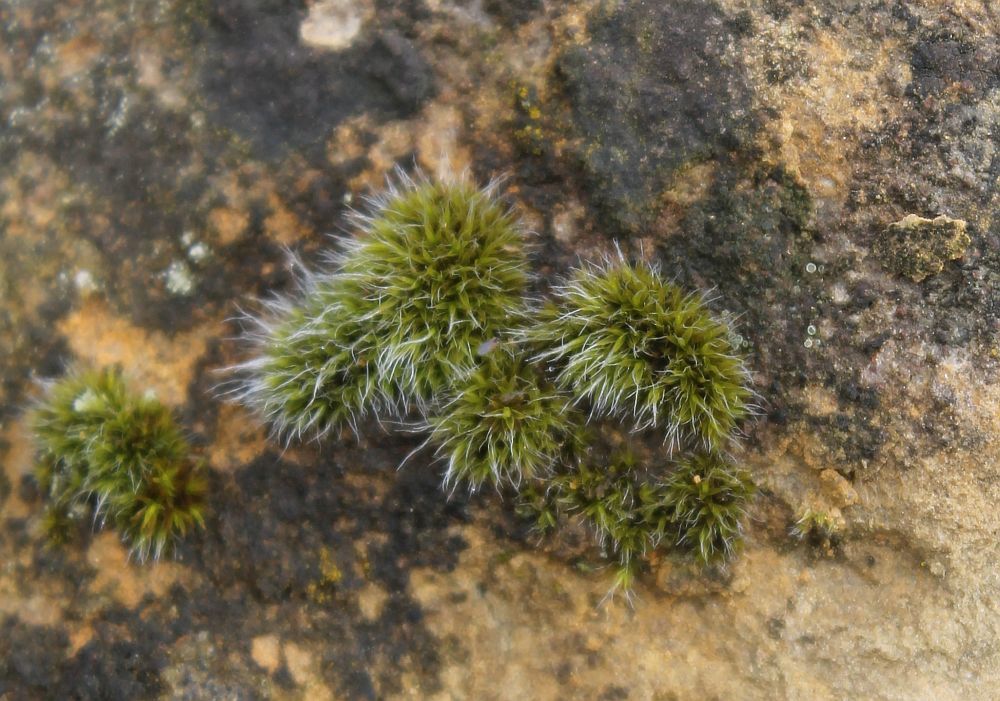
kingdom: Plantae
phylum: Bryophyta
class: Bryopsida
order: Grimmiales
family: Grimmiaceae
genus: Grimmia
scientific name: Grimmia pulvinata
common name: Grey-cushioned grimmia
